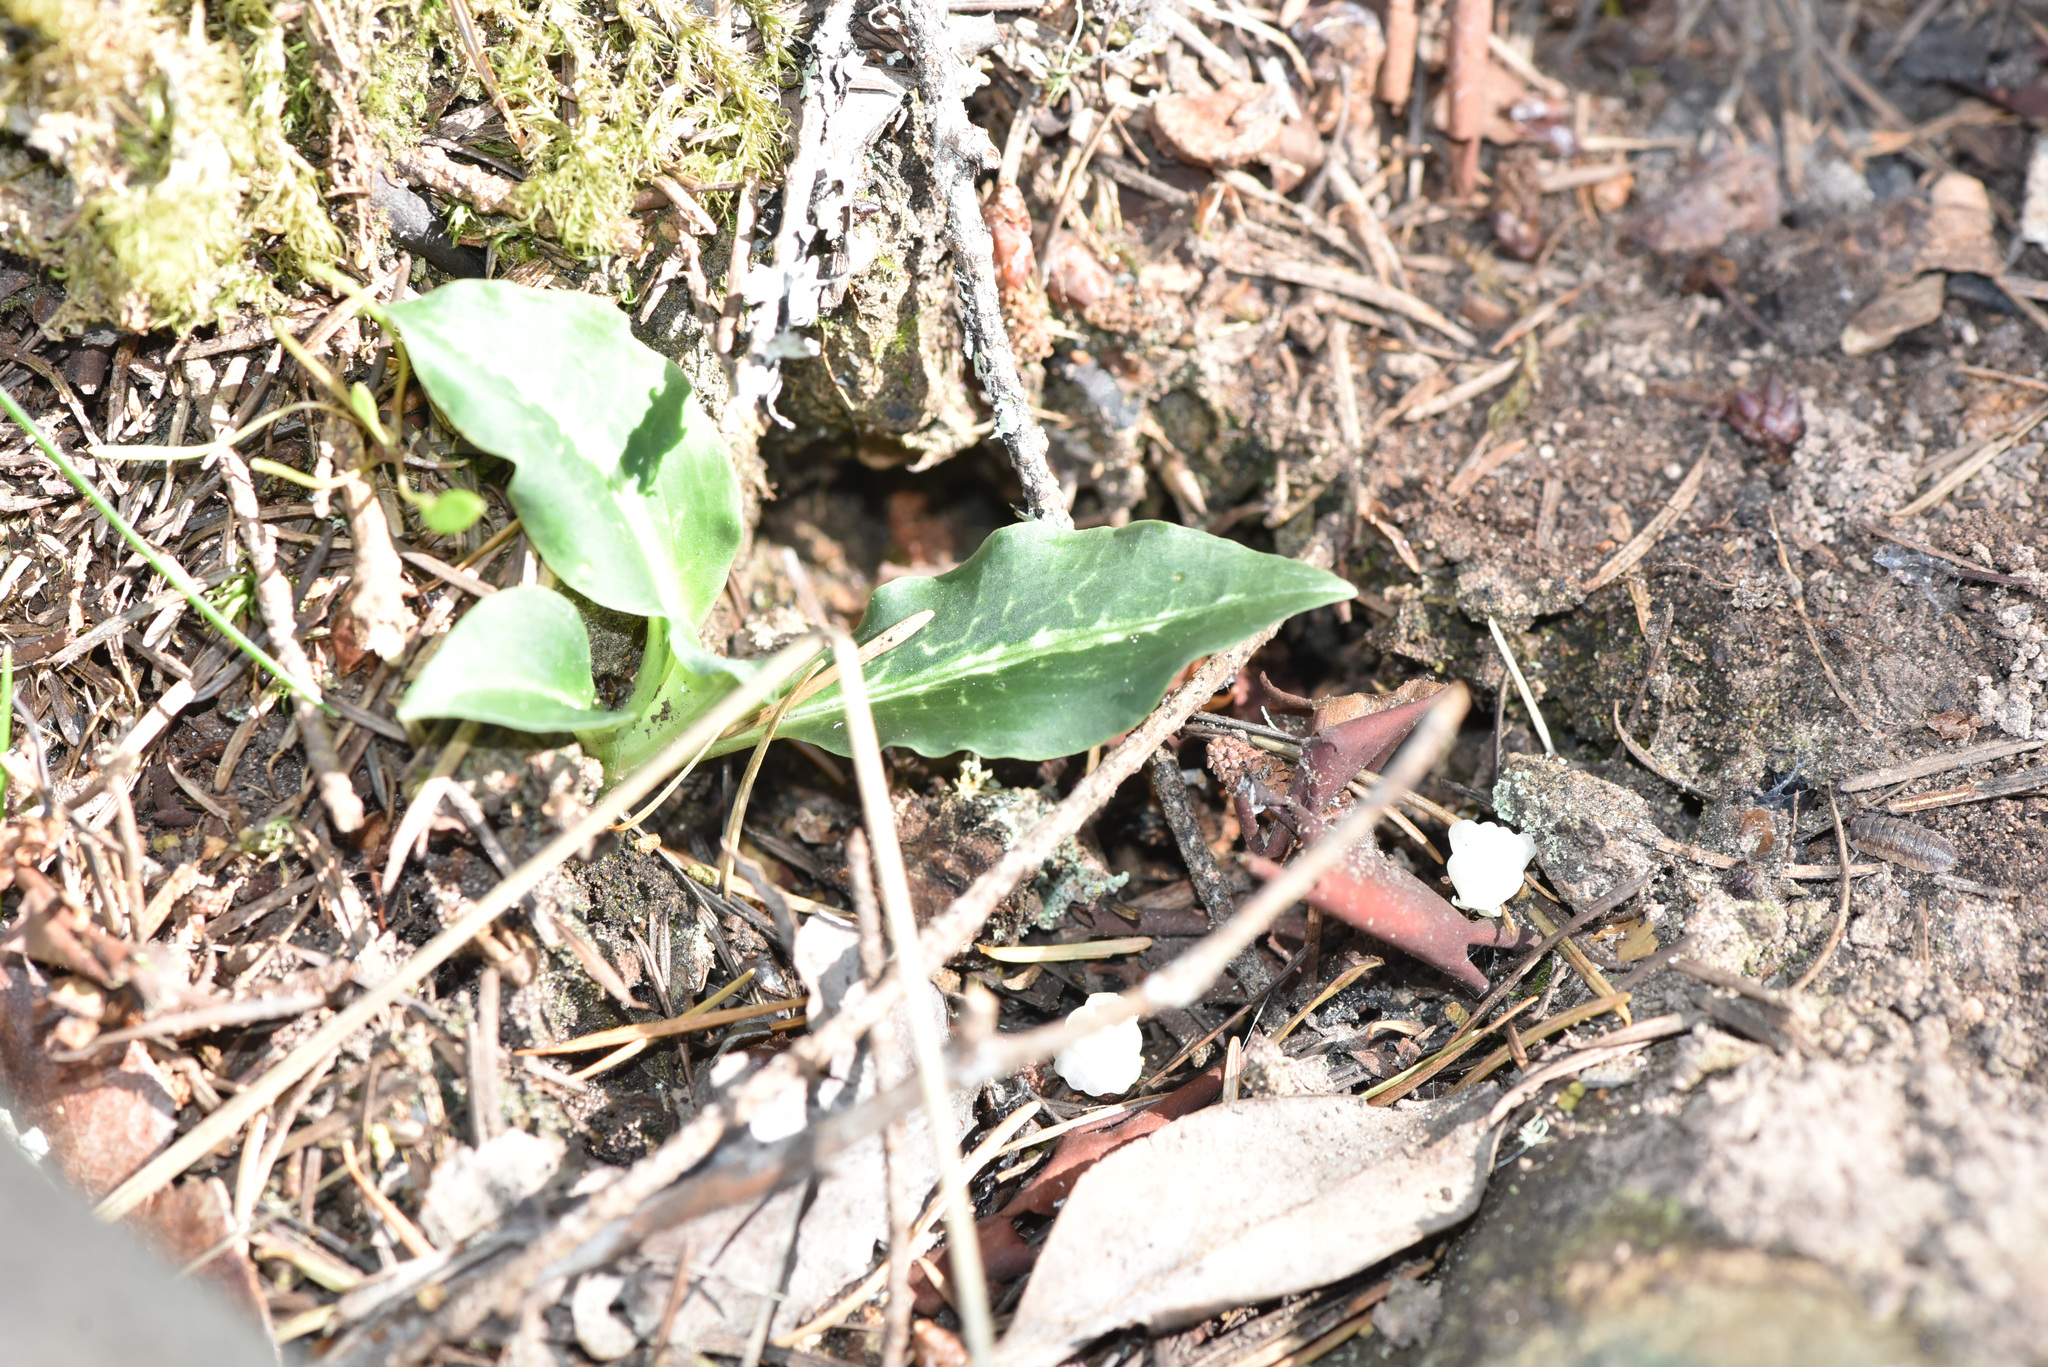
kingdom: Plantae
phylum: Tracheophyta
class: Liliopsida
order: Asparagales
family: Orchidaceae
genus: Goodyera
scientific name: Goodyera oblongifolia
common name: Giant rattlesnake-plantain
